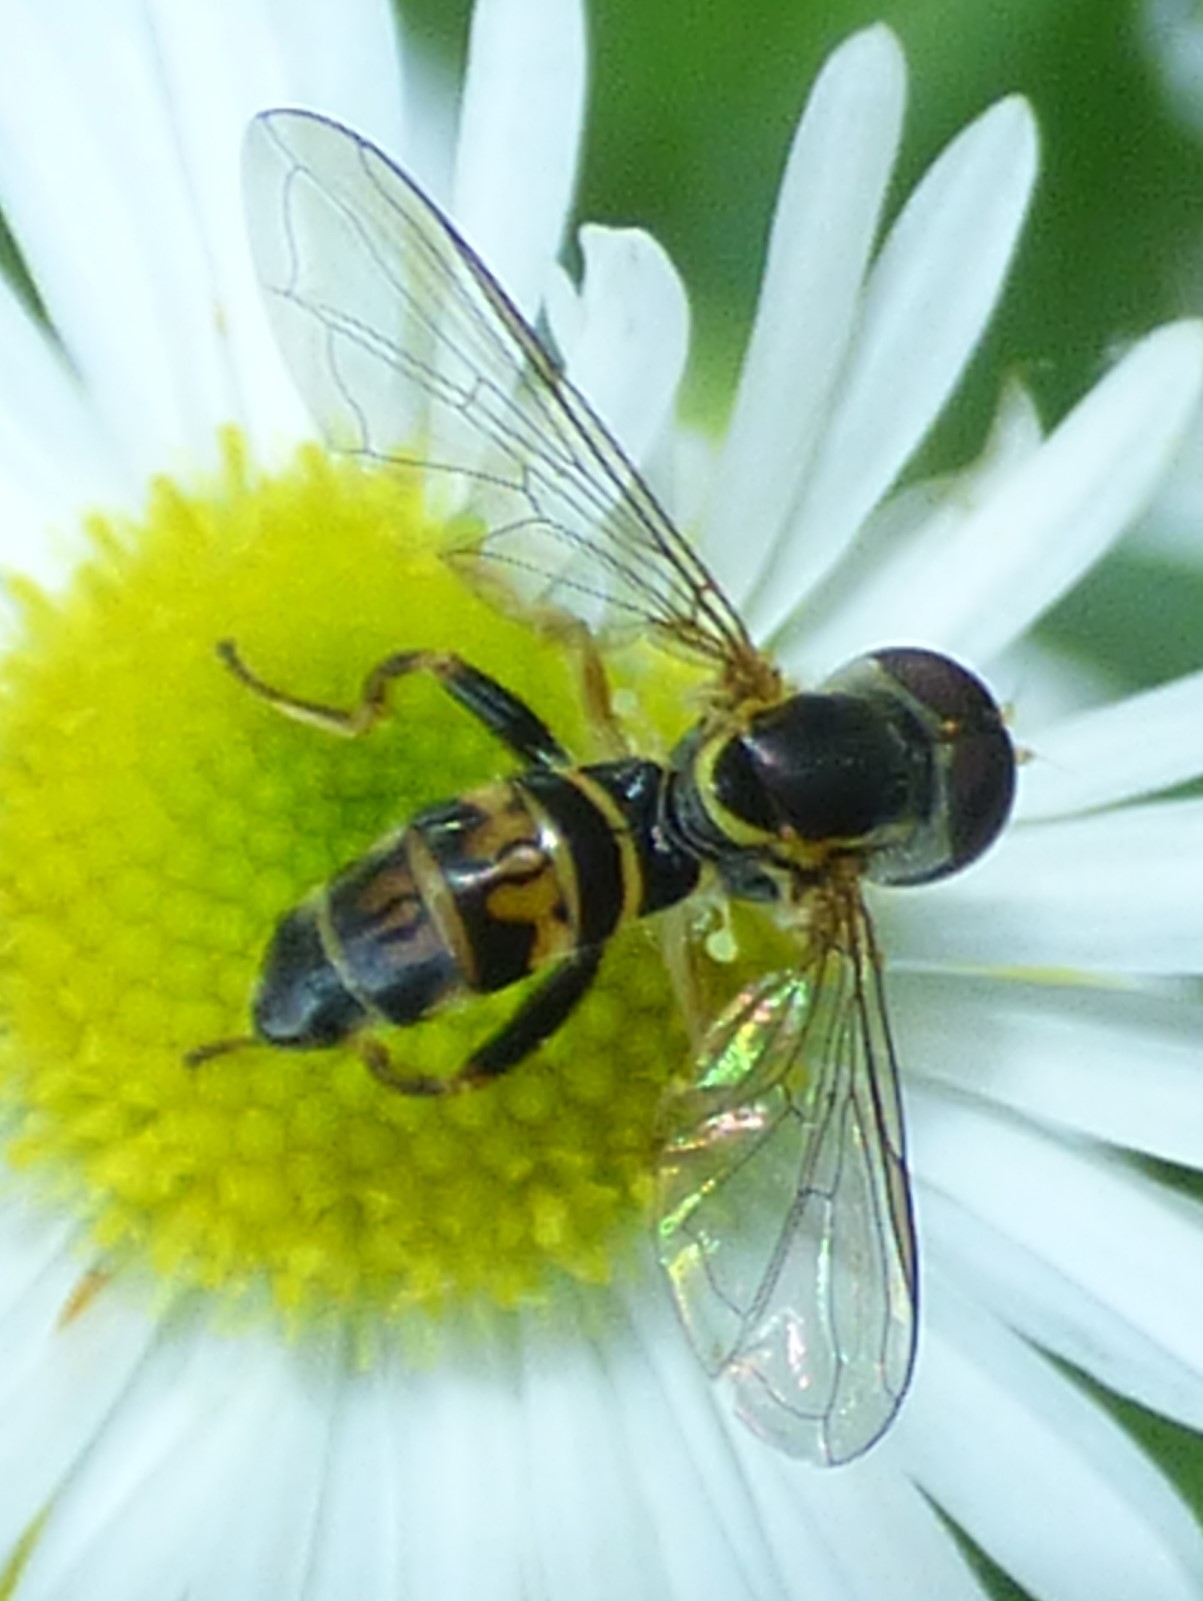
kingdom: Animalia
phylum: Arthropoda
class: Insecta
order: Diptera
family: Syrphidae
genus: Toxomerus
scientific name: Toxomerus geminatus
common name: Eastern calligrapher
